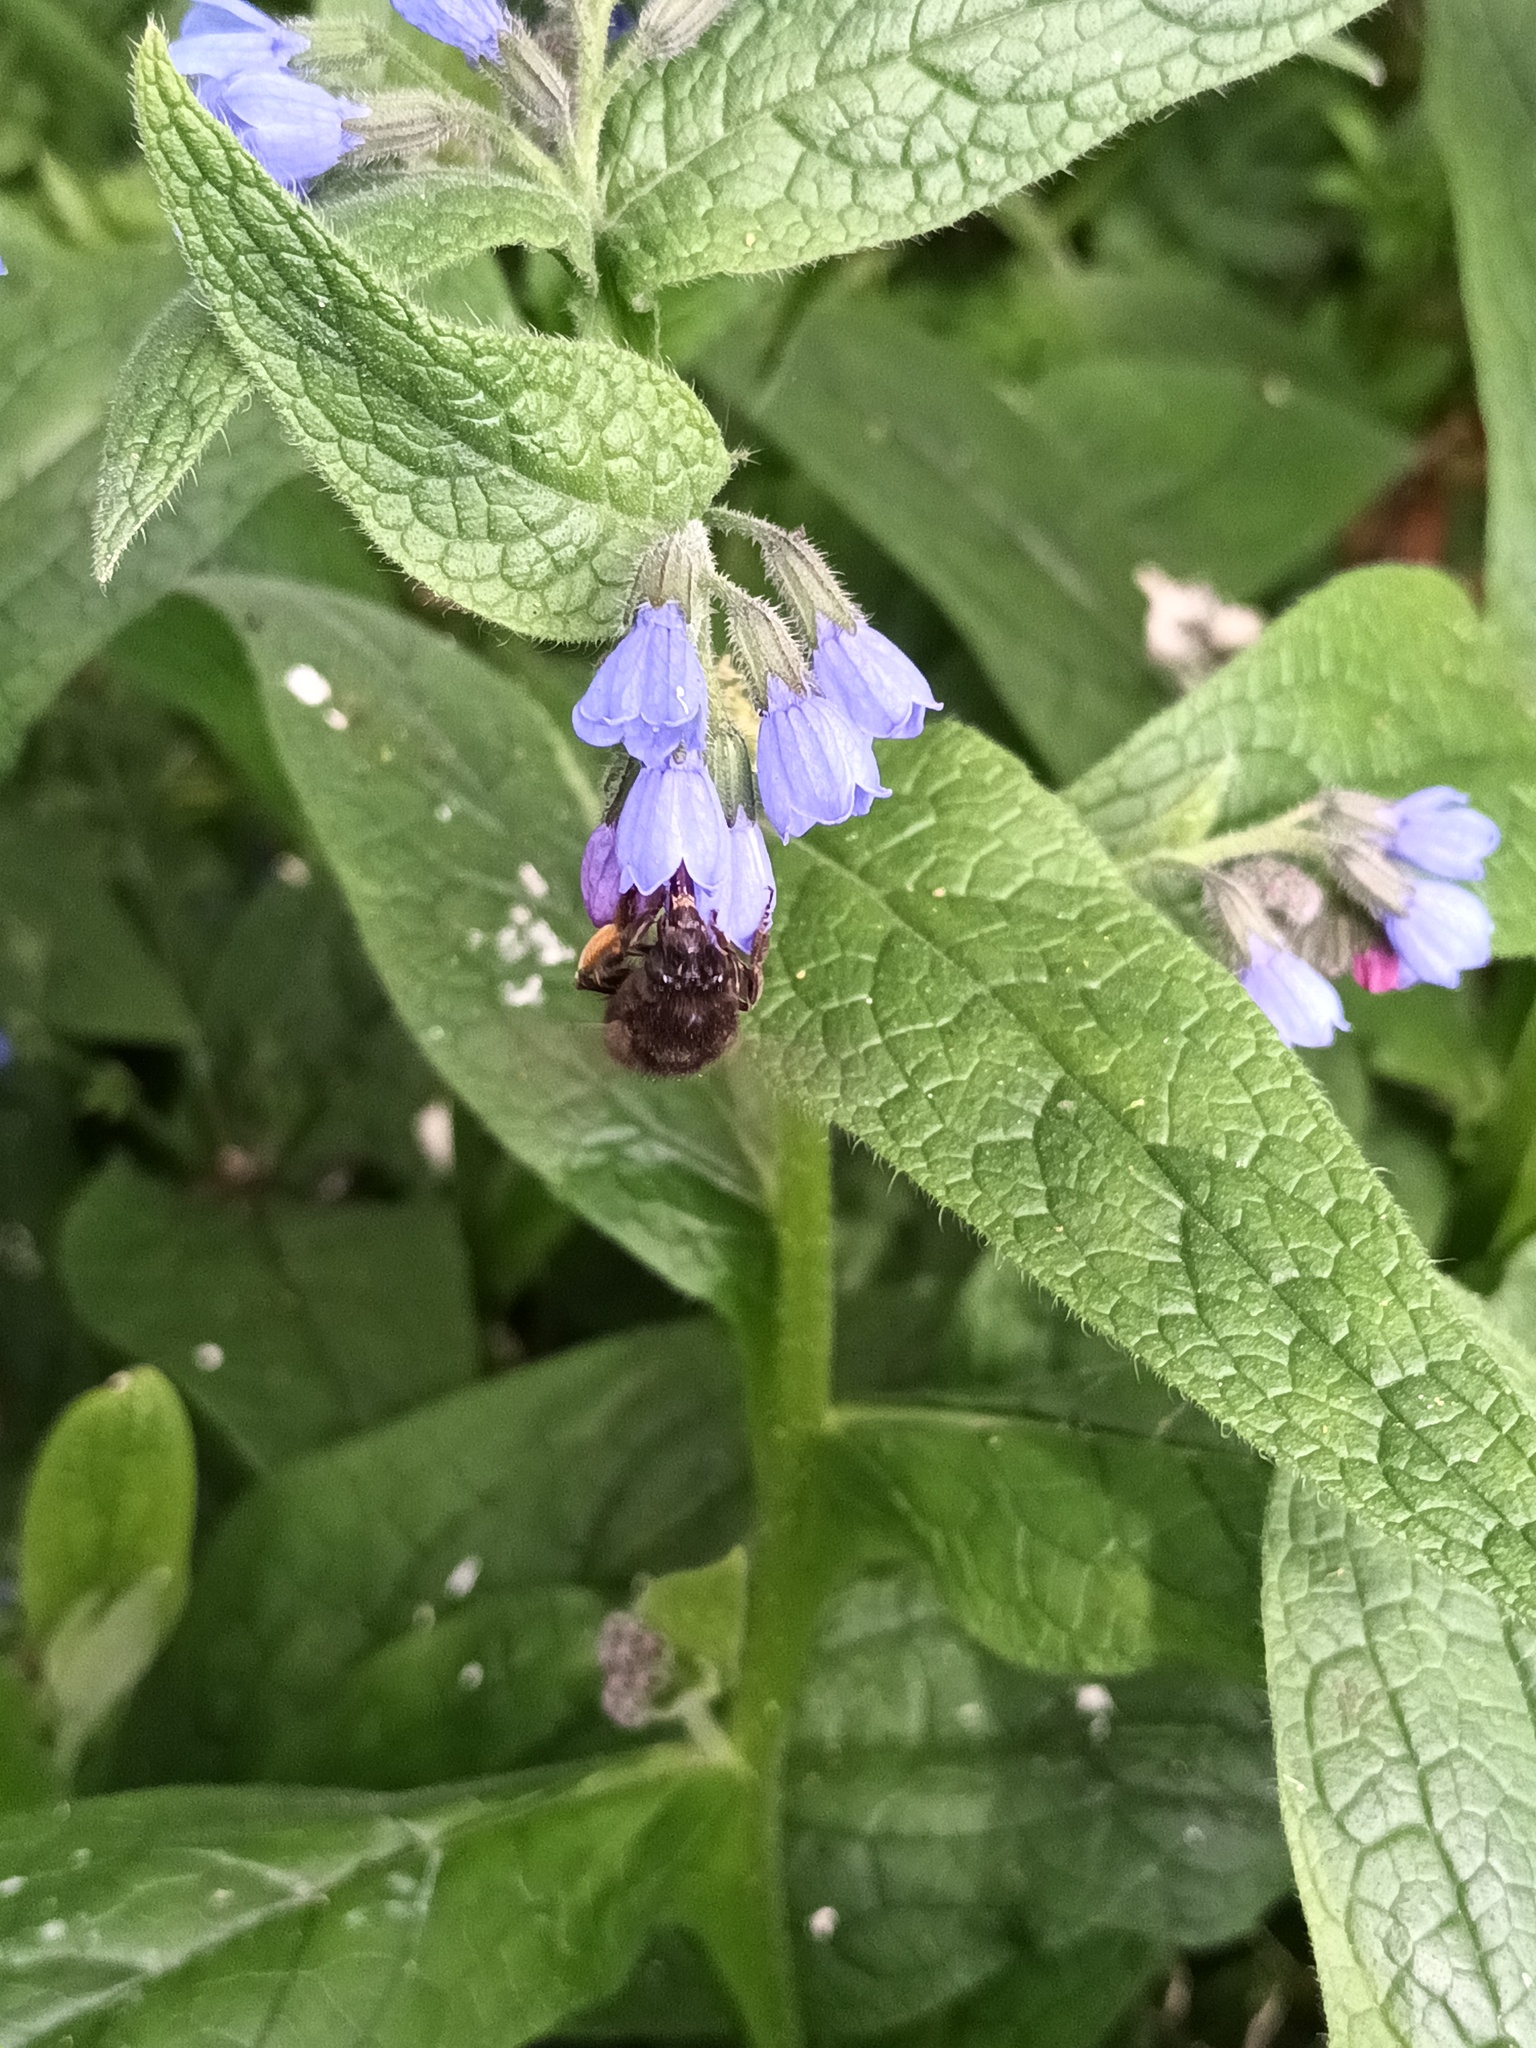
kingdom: Animalia
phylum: Arthropoda
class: Insecta
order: Hymenoptera
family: Apidae
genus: Anthophora
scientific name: Anthophora plumipes
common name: Hairy-footed flower bee
